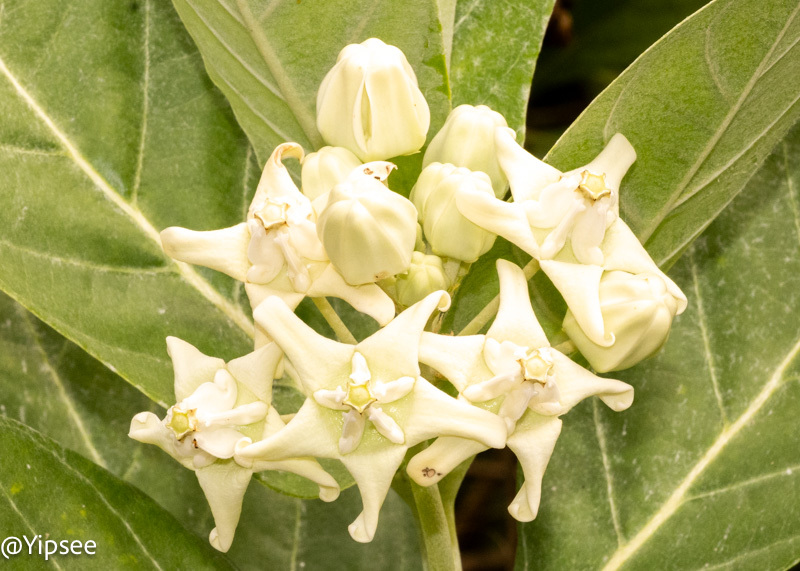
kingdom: Plantae
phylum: Tracheophyta
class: Magnoliopsida
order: Gentianales
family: Apocynaceae
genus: Calotropis
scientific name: Calotropis gigantea
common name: Crown flower
